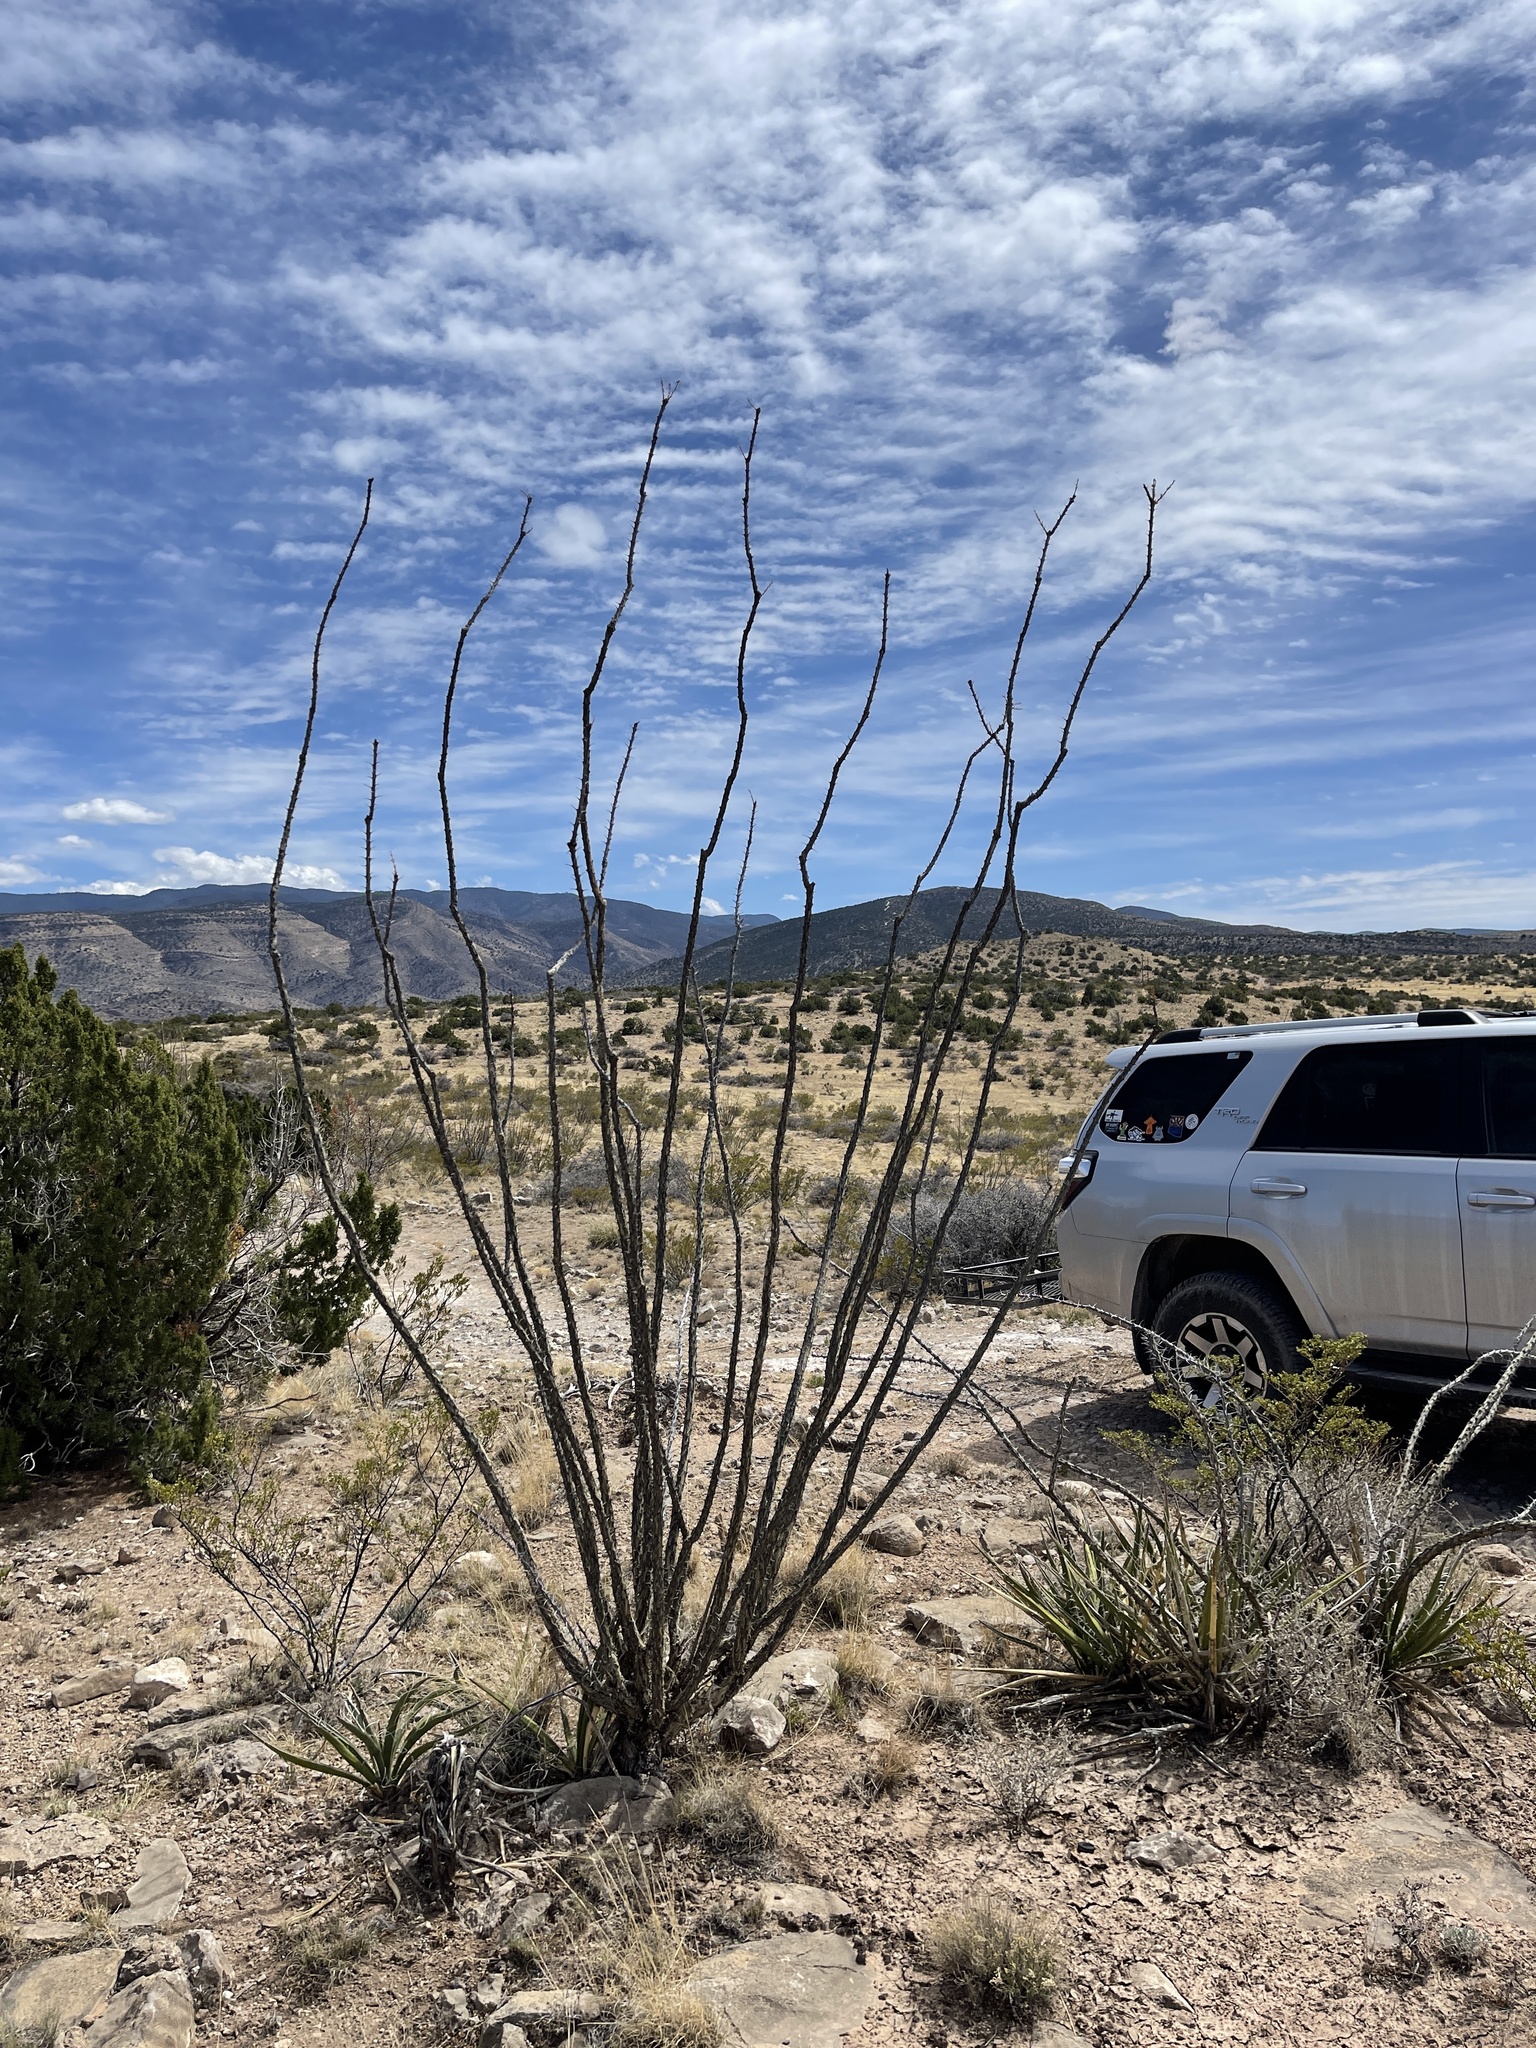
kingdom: Plantae
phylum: Tracheophyta
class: Magnoliopsida
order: Ericales
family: Fouquieriaceae
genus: Fouquieria
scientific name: Fouquieria splendens
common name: Vine-cactus
